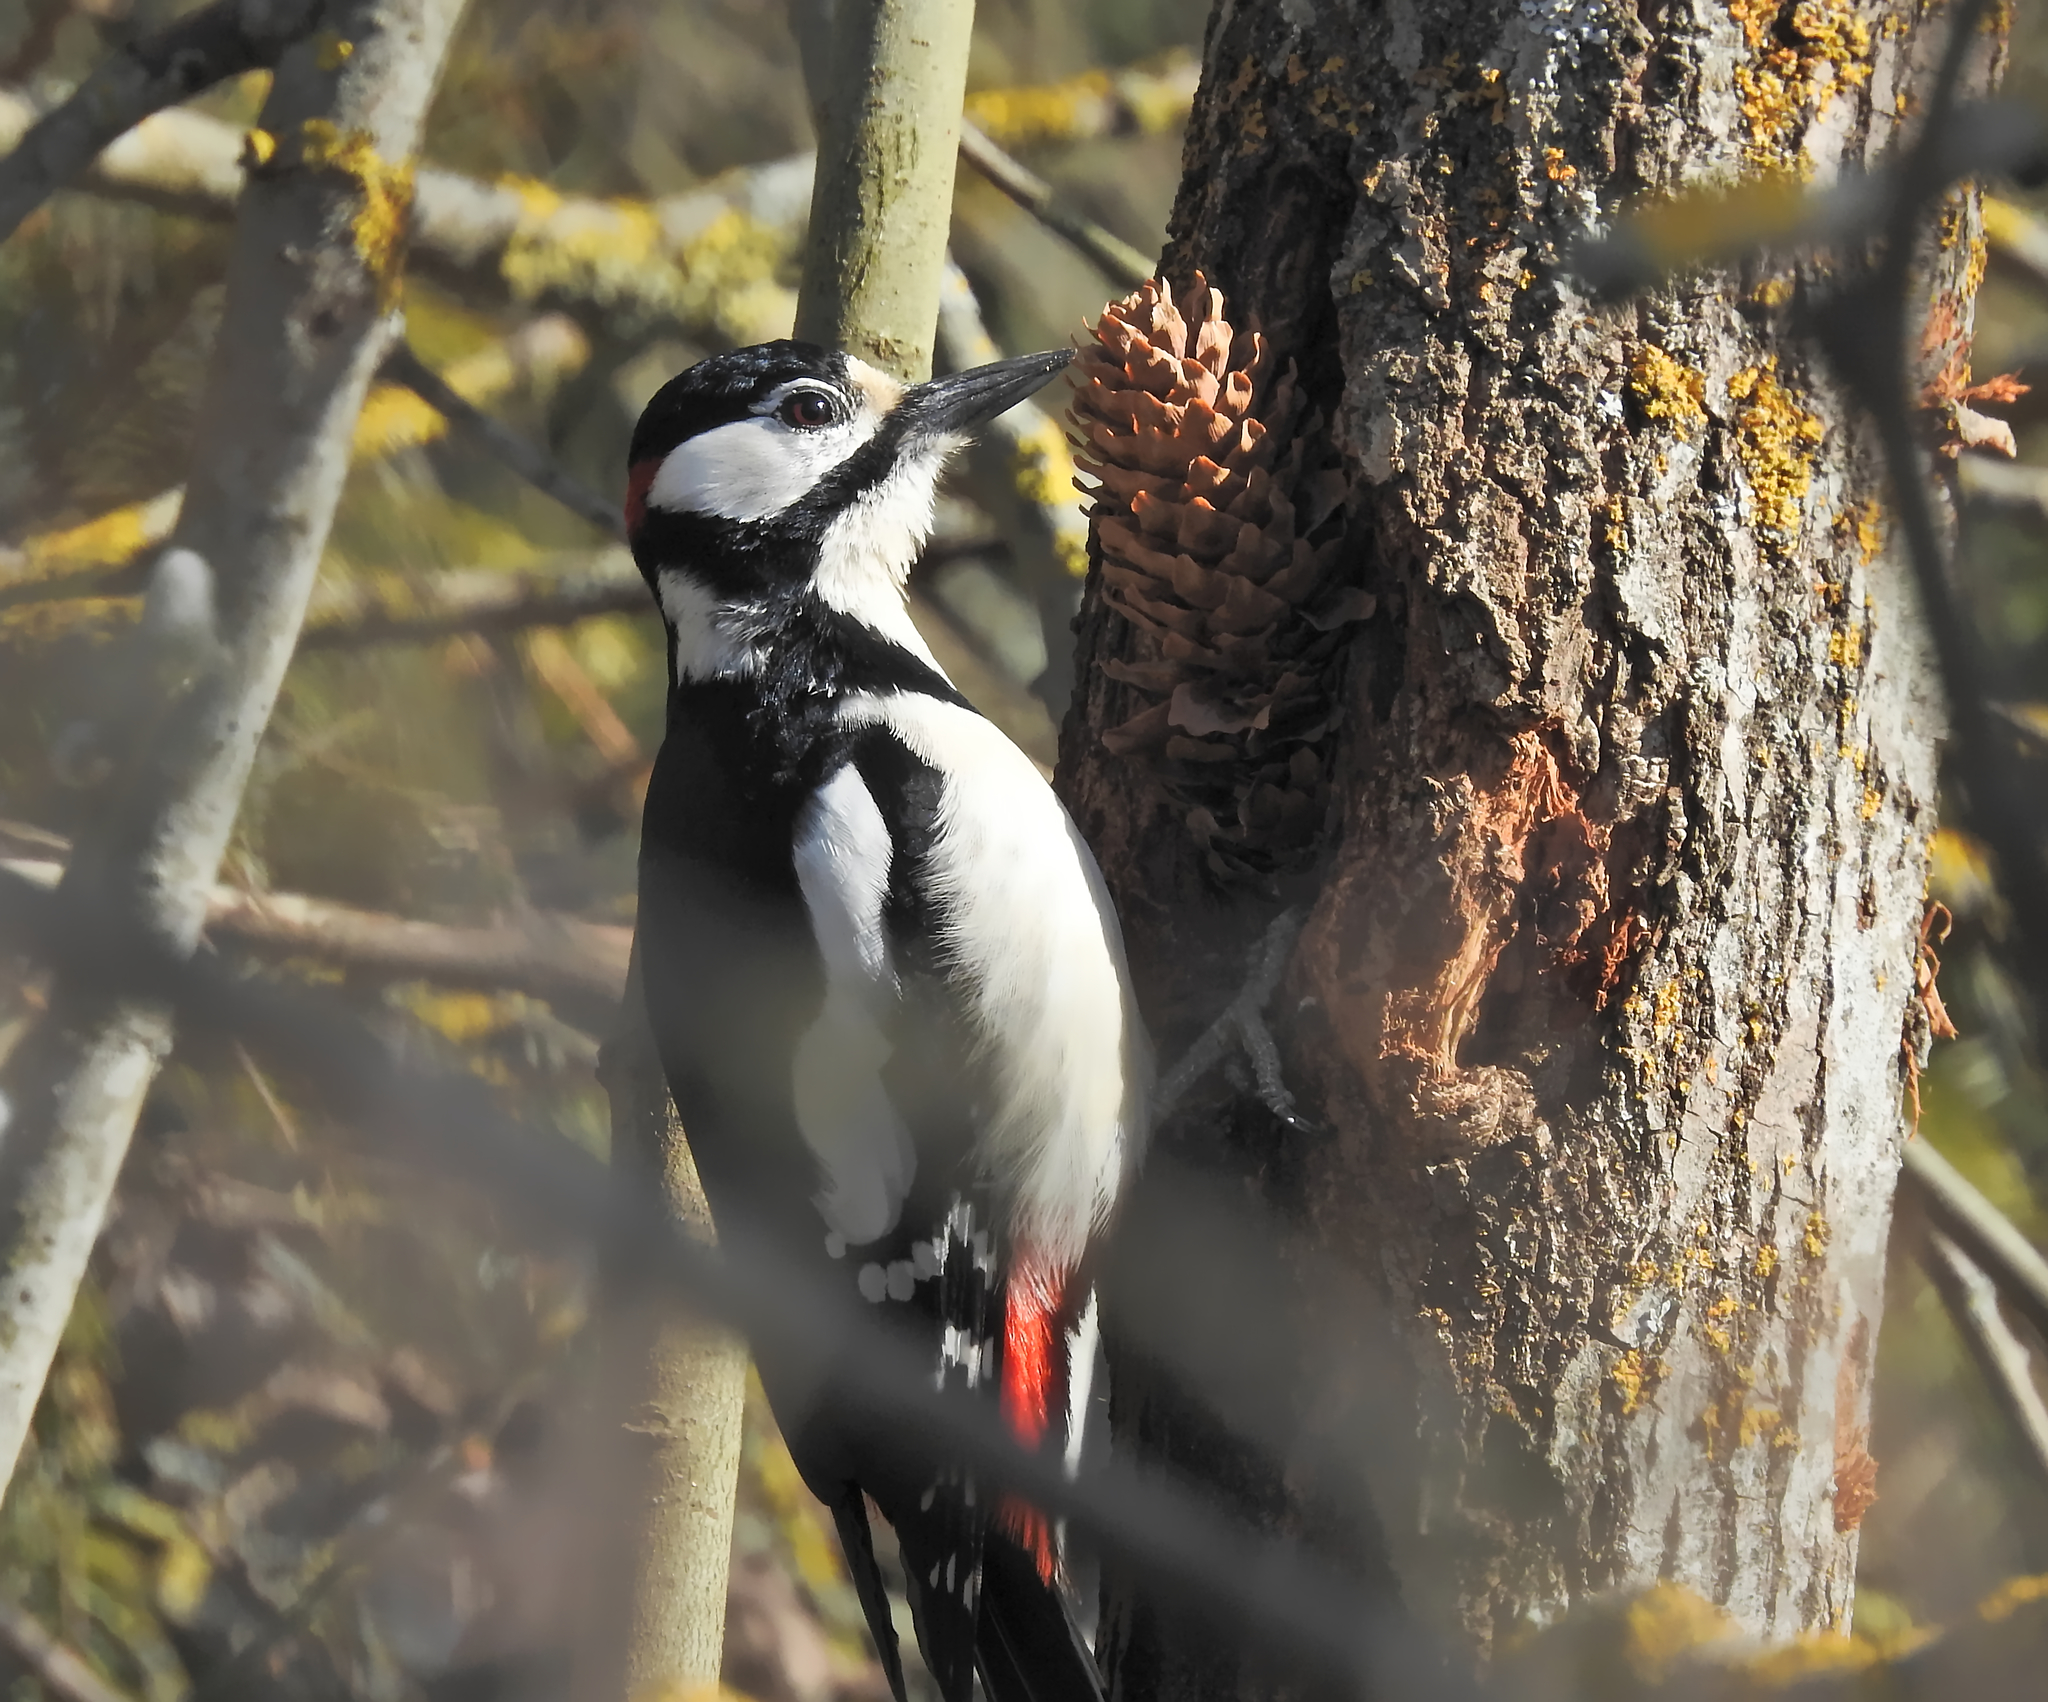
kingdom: Animalia
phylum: Chordata
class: Aves
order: Piciformes
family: Picidae
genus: Dendrocopos
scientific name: Dendrocopos major
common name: Great spotted woodpecker
